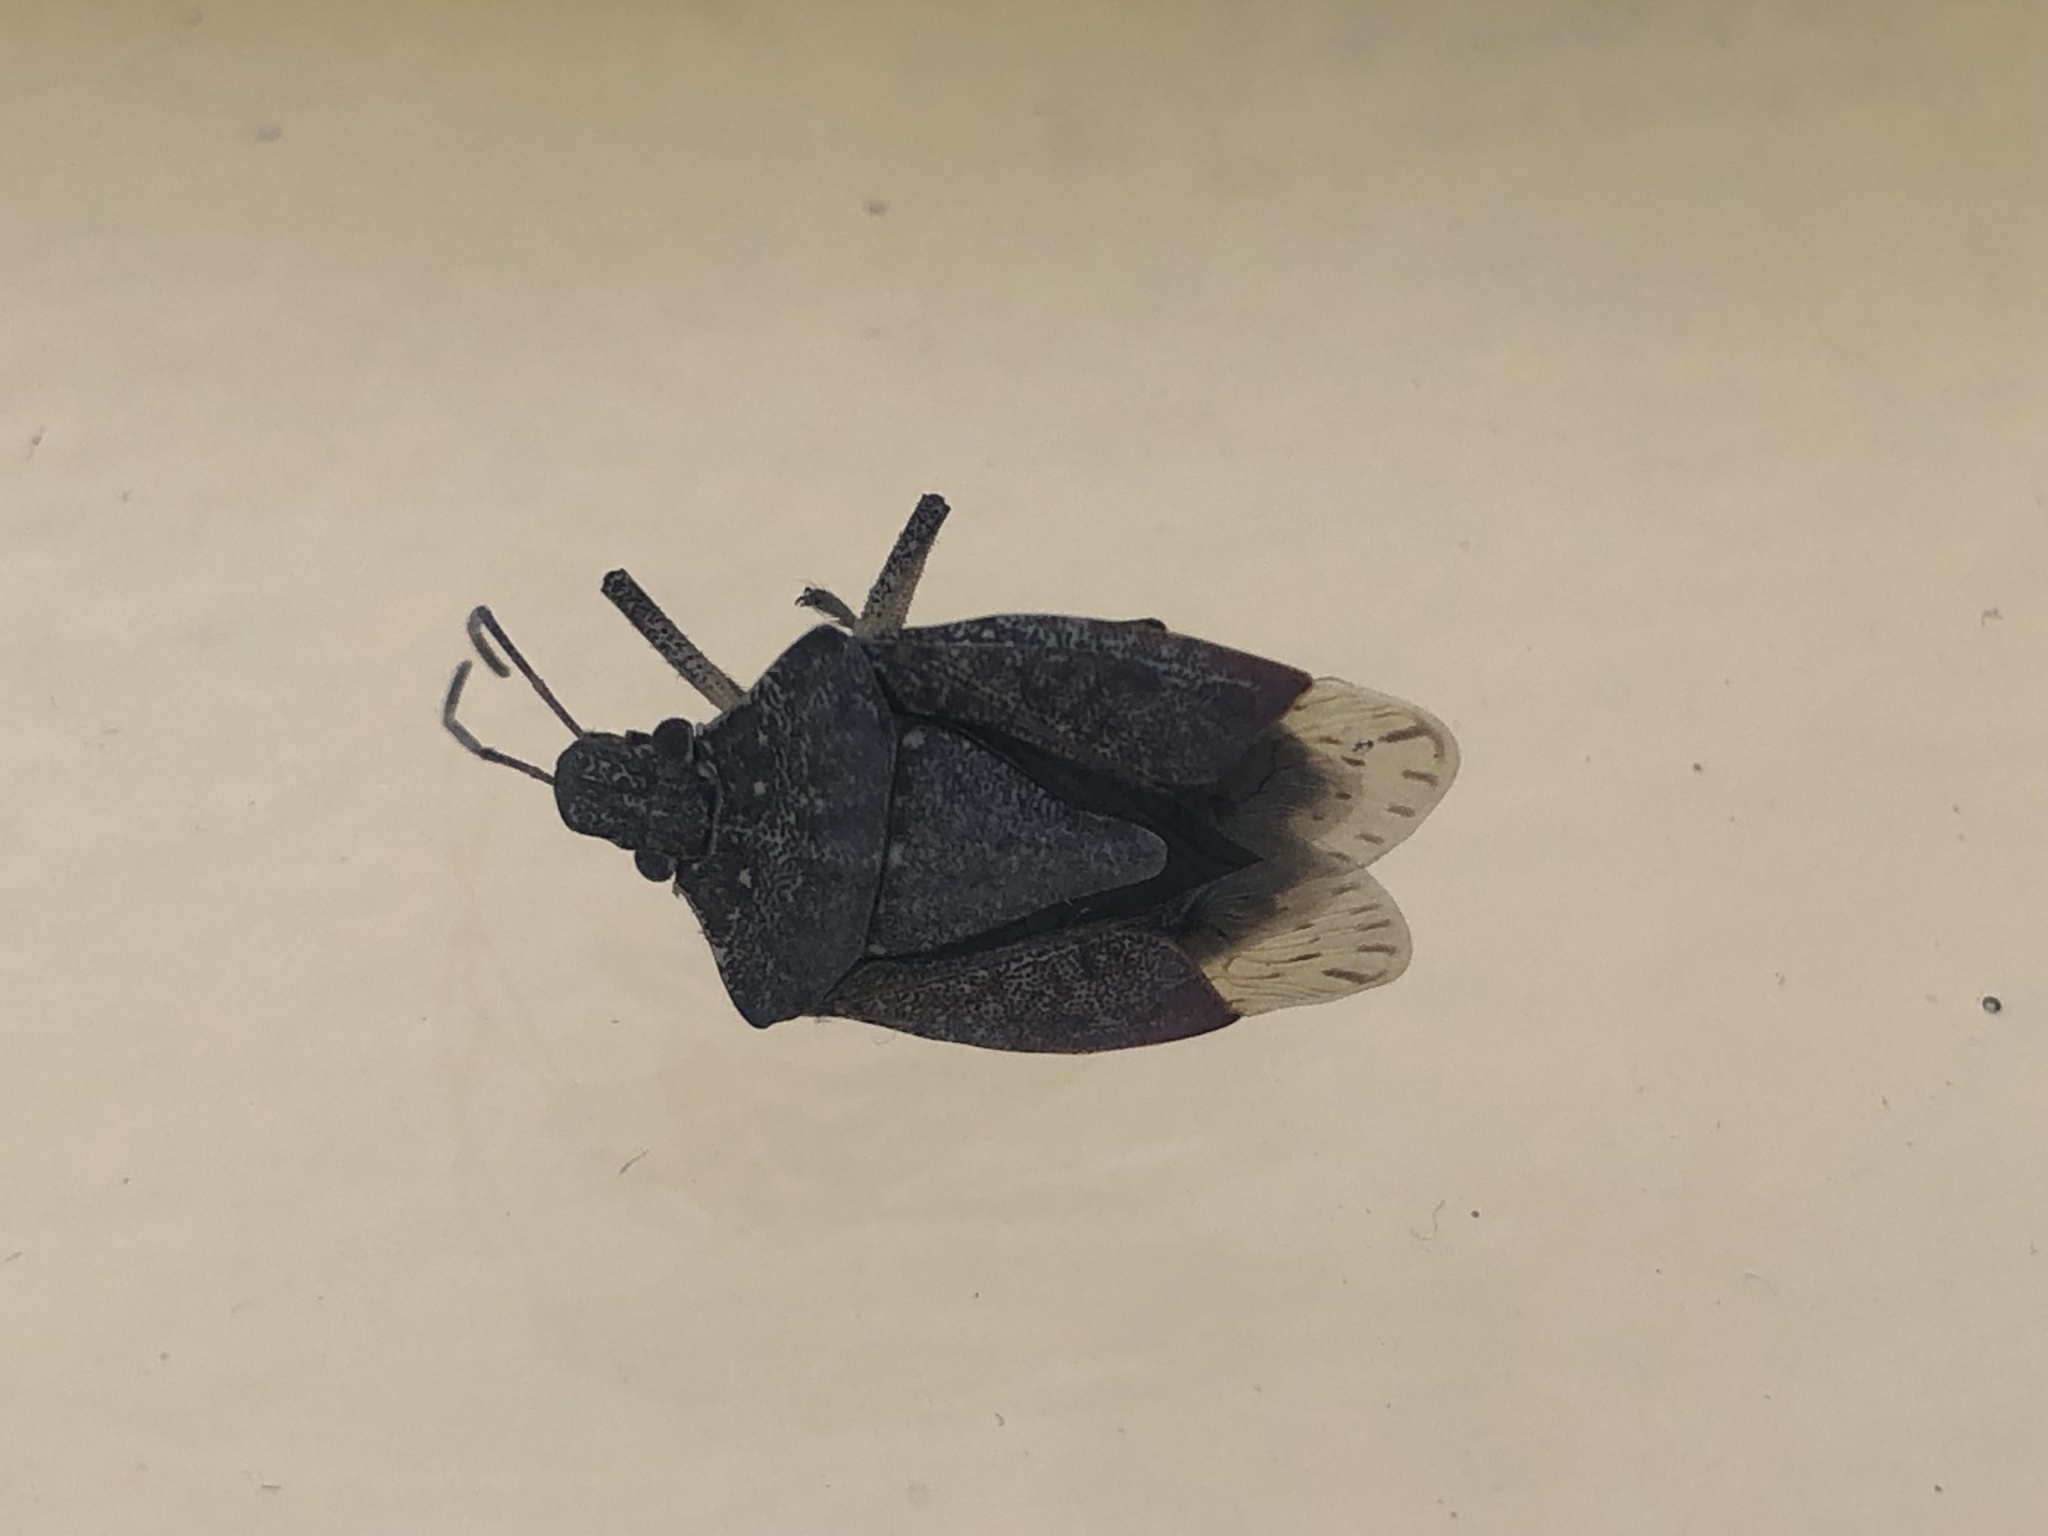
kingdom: Animalia
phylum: Arthropoda
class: Insecta
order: Hemiptera
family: Pentatomidae
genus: Halyomorpha
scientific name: Halyomorpha halys
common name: Brown marmorated stink bug
